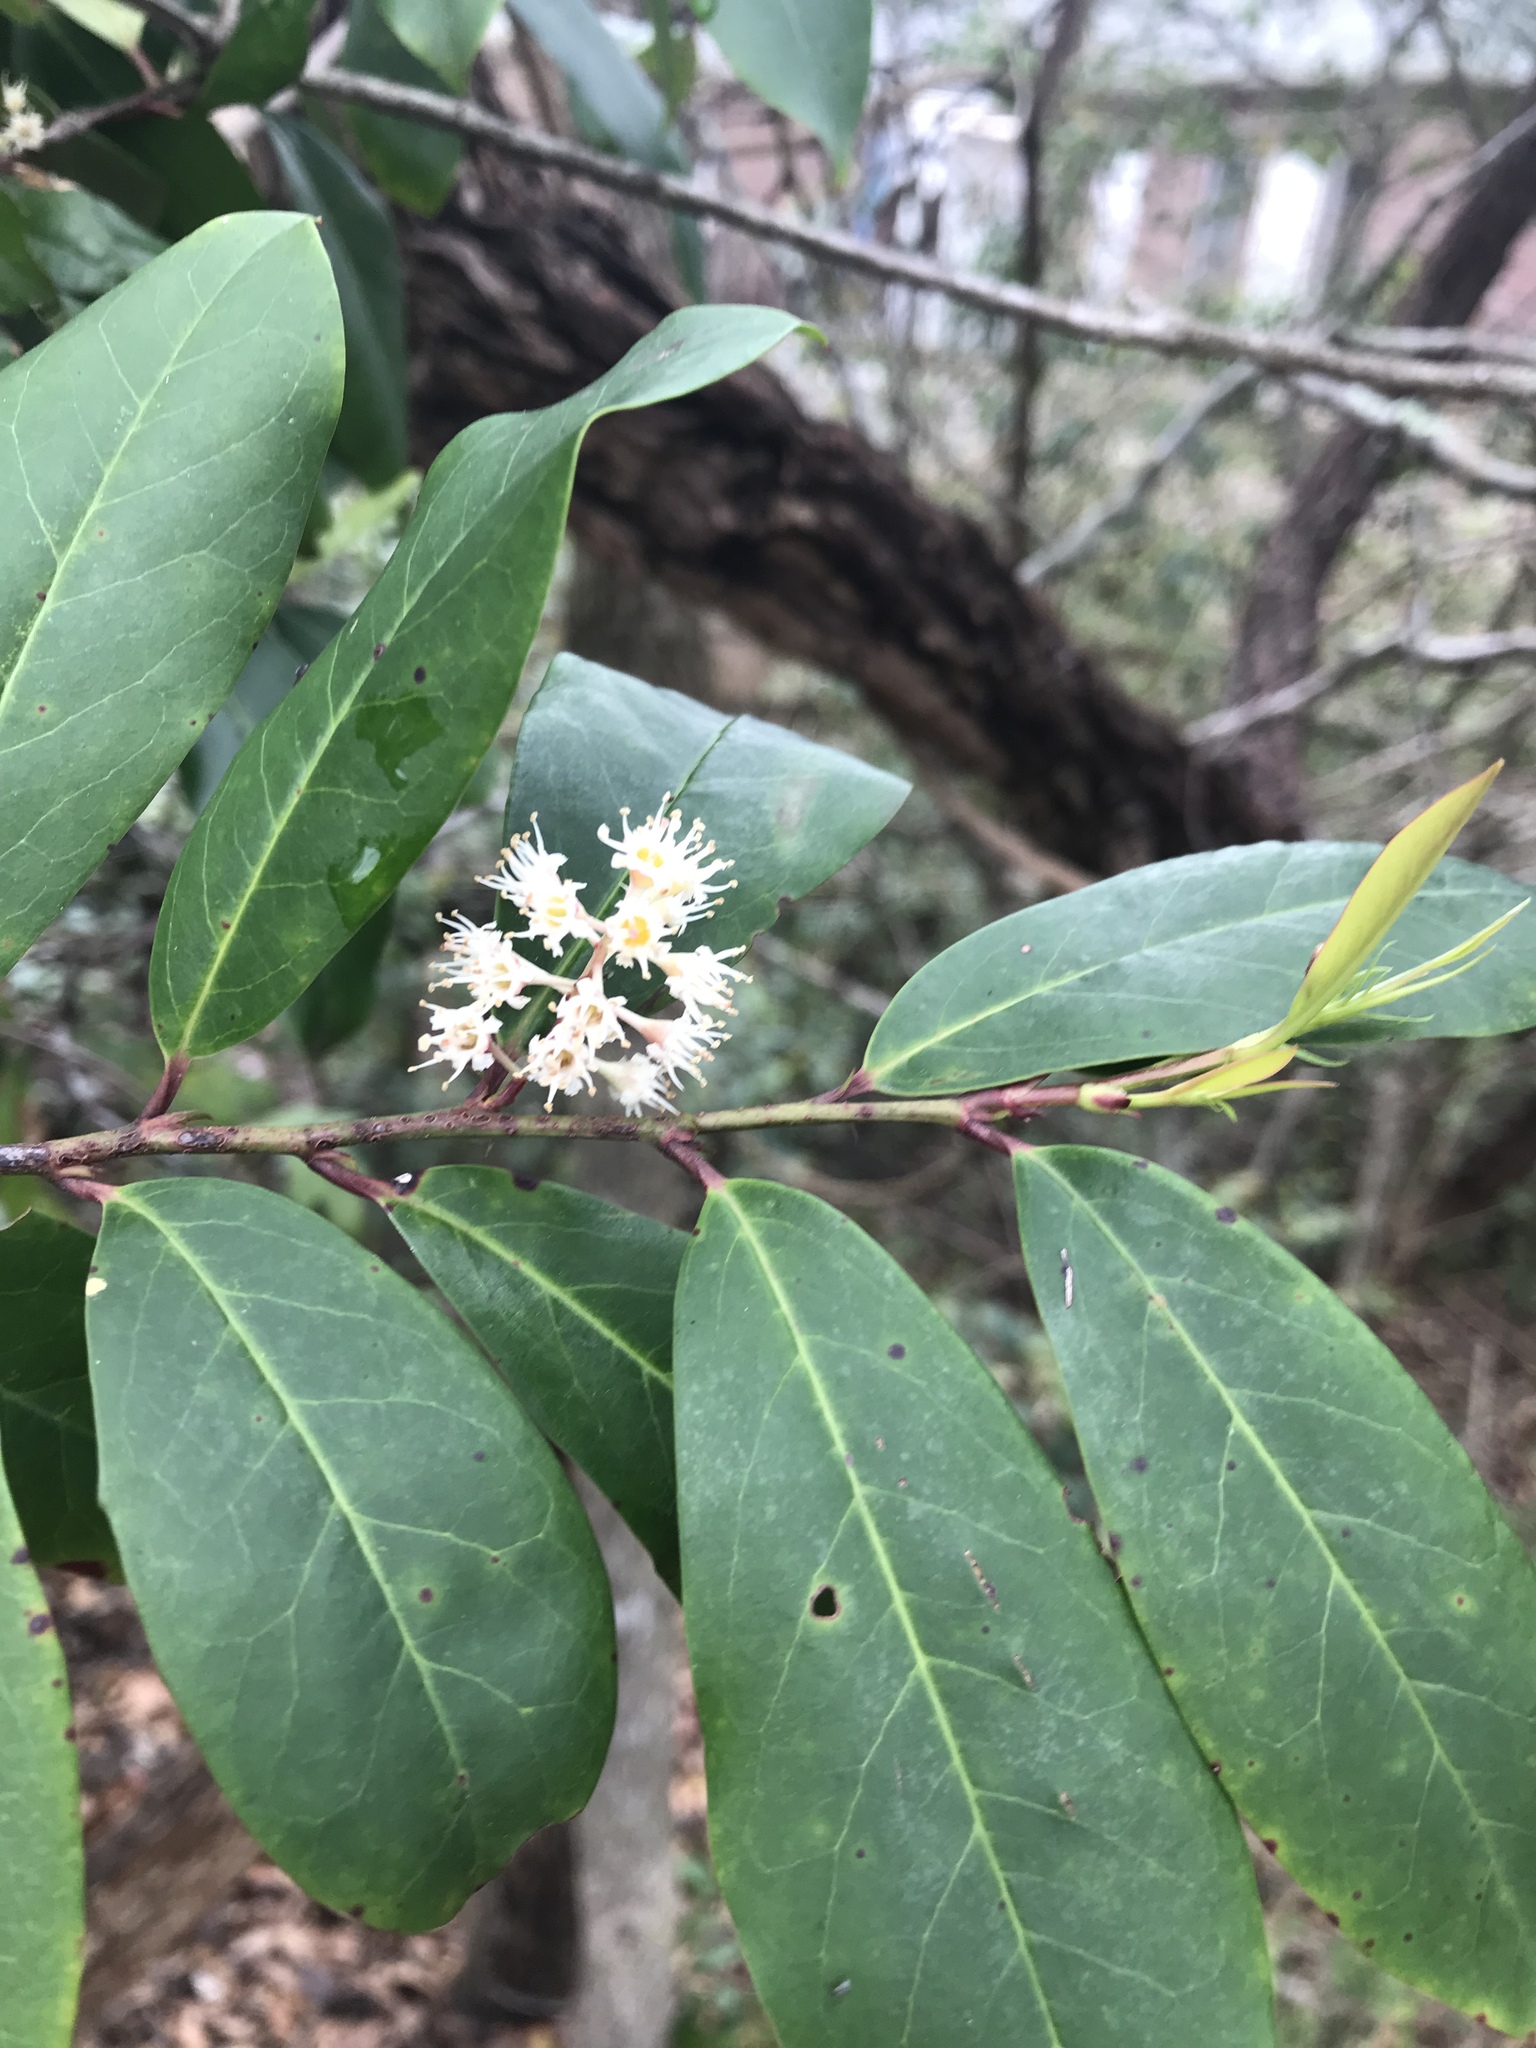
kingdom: Plantae
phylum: Tracheophyta
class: Magnoliopsida
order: Rosales
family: Rosaceae
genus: Prunus
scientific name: Prunus caroliniana
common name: Carolina laurel cherry
